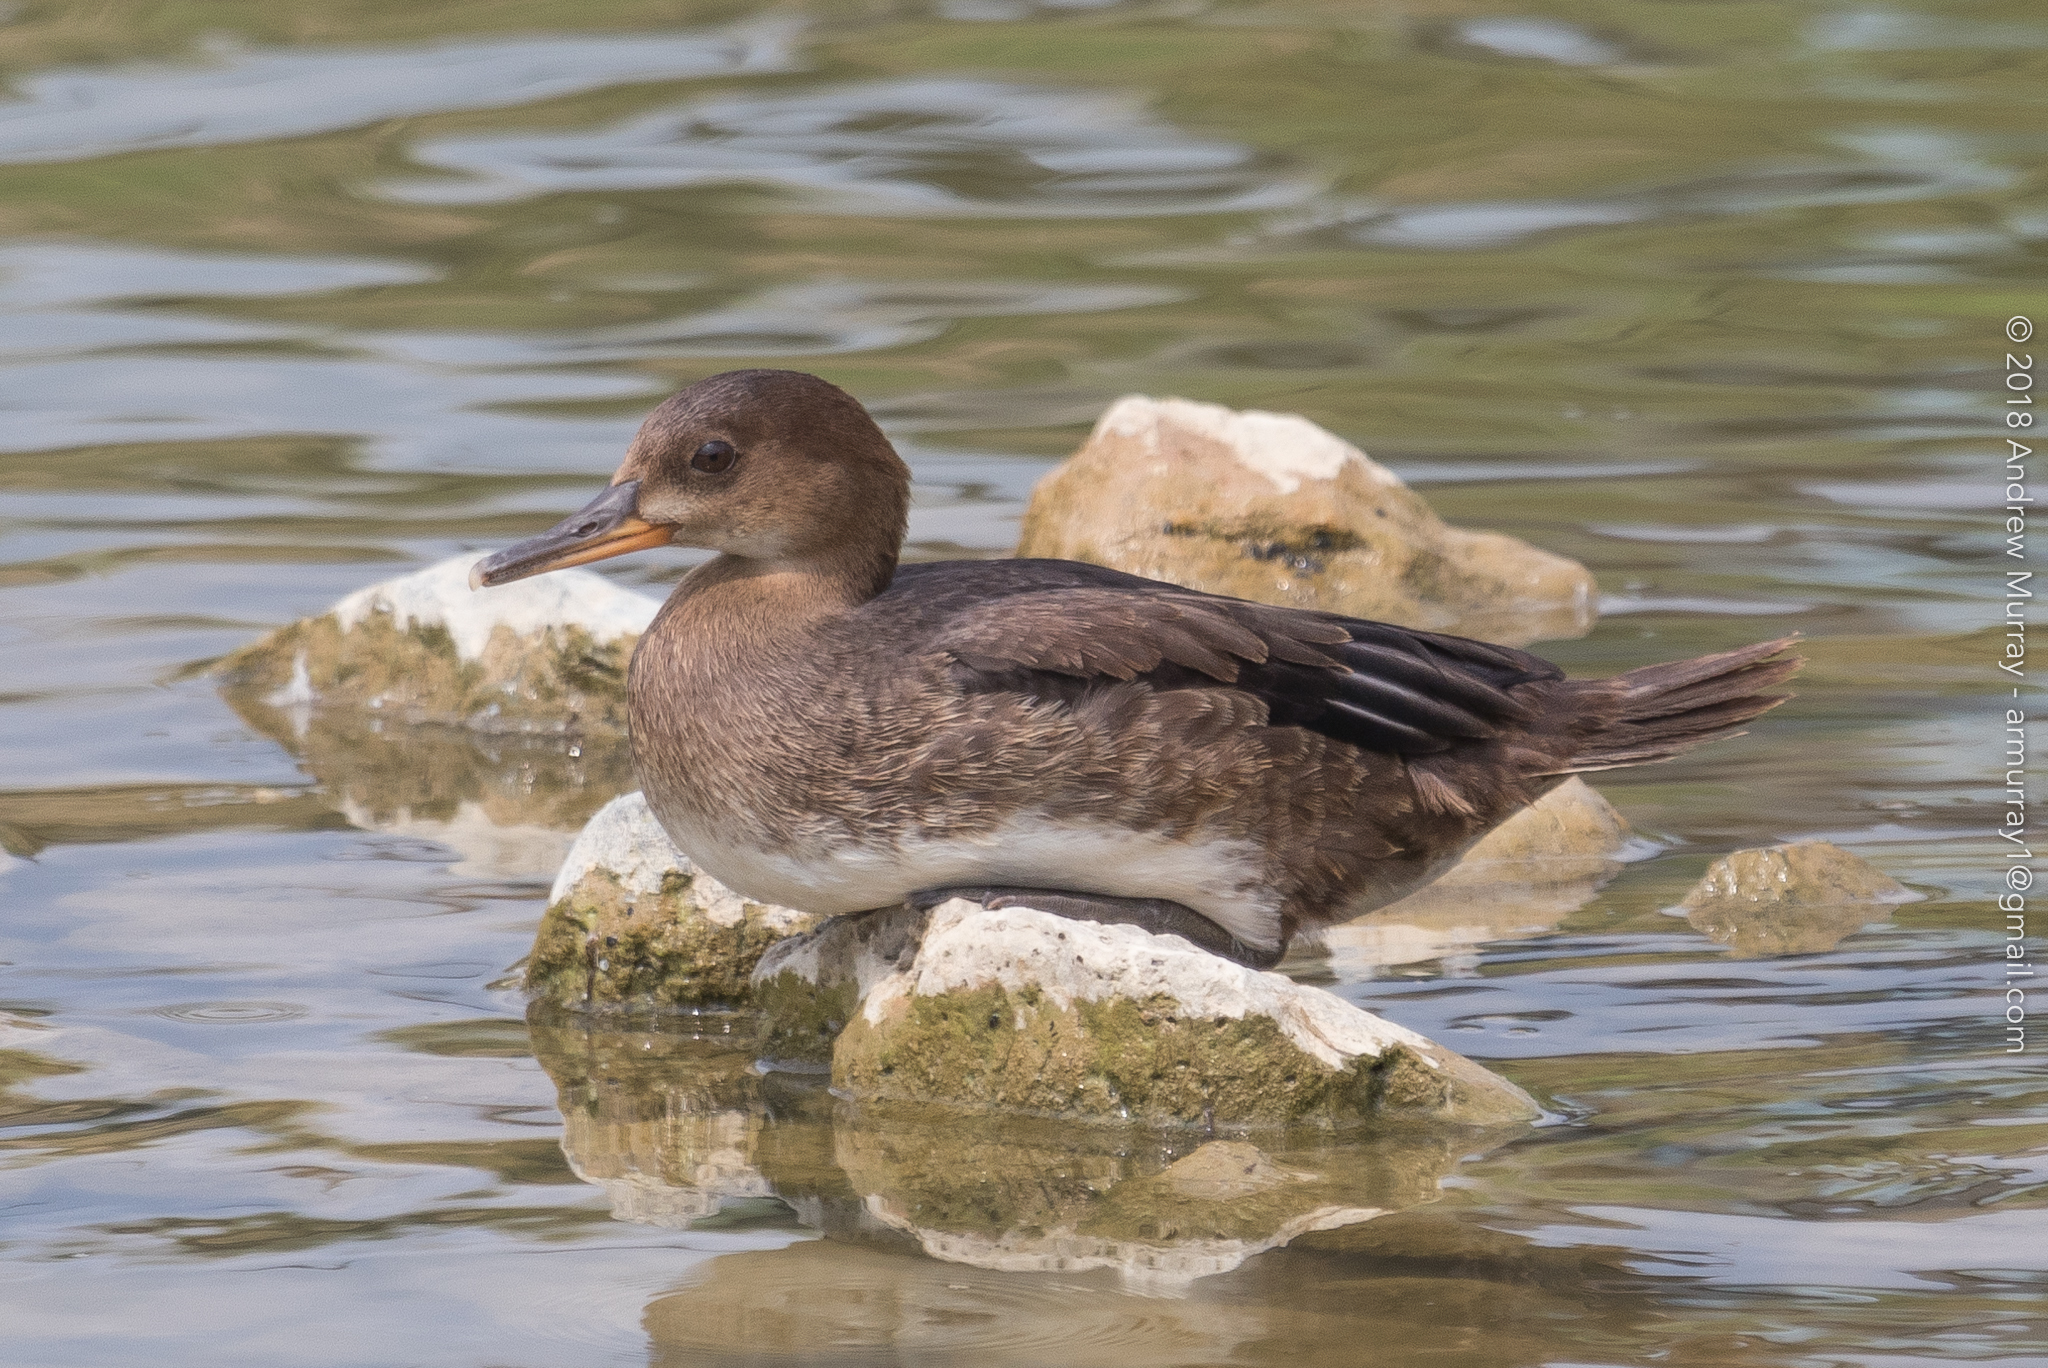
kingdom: Animalia
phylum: Chordata
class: Aves
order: Anseriformes
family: Anatidae
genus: Lophodytes
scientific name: Lophodytes cucullatus
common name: Hooded merganser
